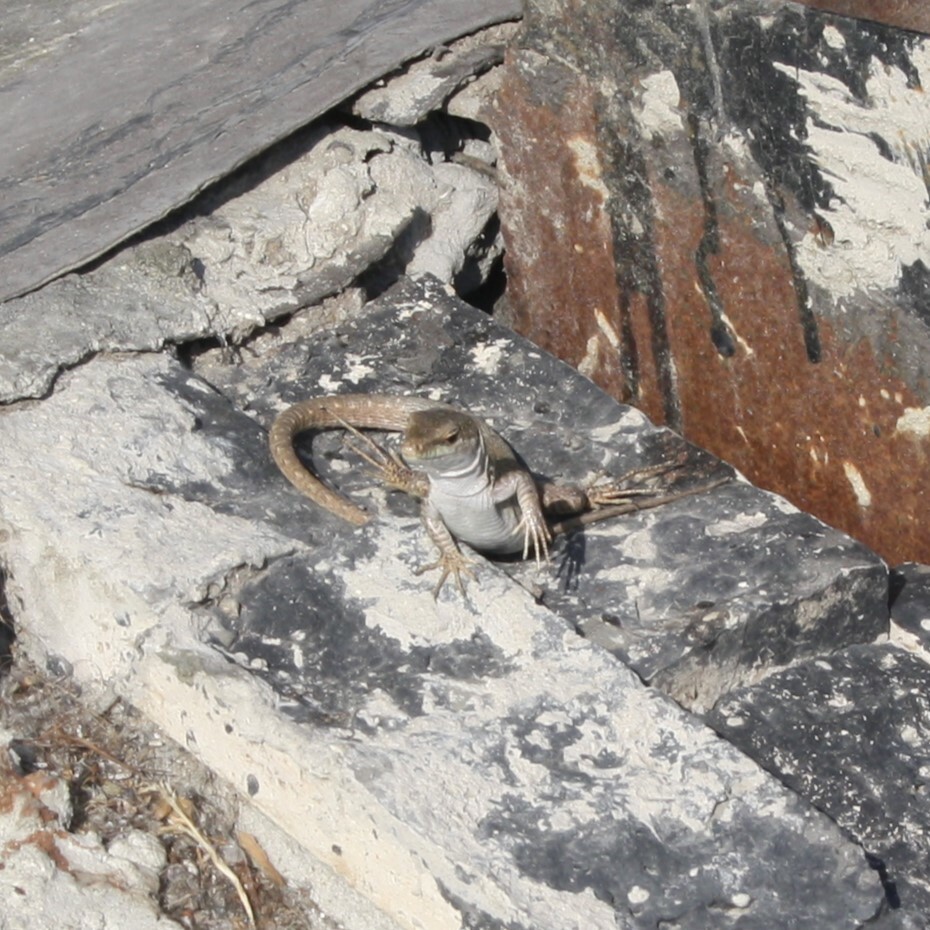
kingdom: Animalia
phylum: Chordata
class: Squamata
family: Lacertidae
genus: Podarcis
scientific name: Podarcis siculus
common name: Italian wall lizard
